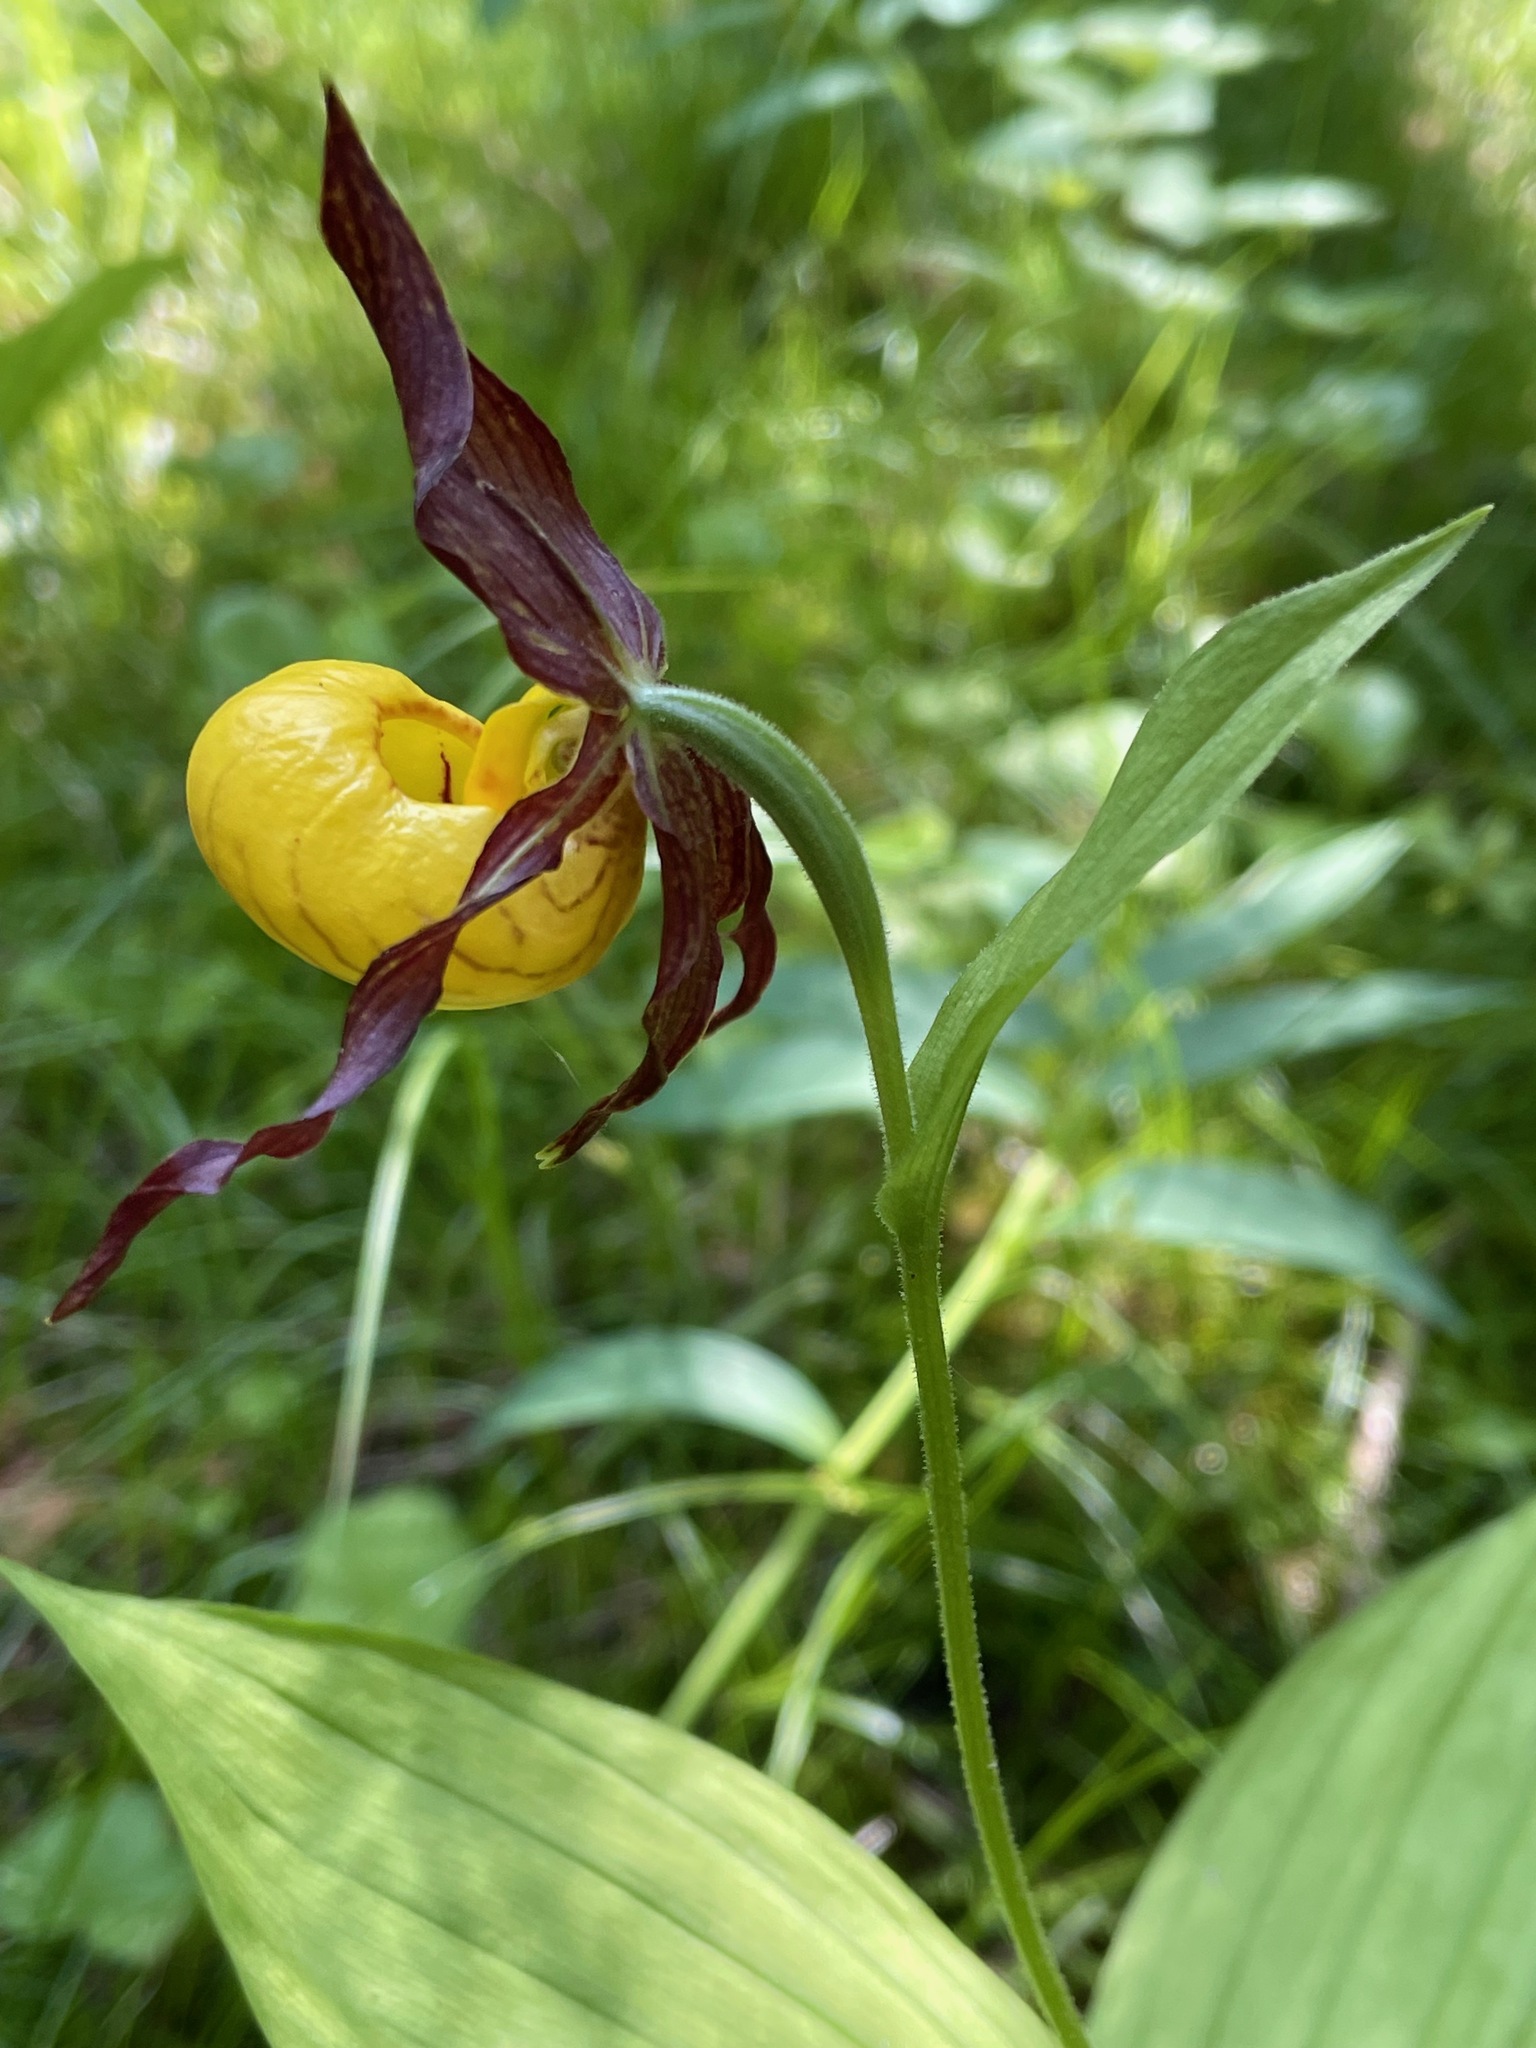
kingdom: Plantae
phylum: Tracheophyta
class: Liliopsida
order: Asparagales
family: Orchidaceae
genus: Cypripedium
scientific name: Cypripedium parviflorum
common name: American yellow lady's-slipper
